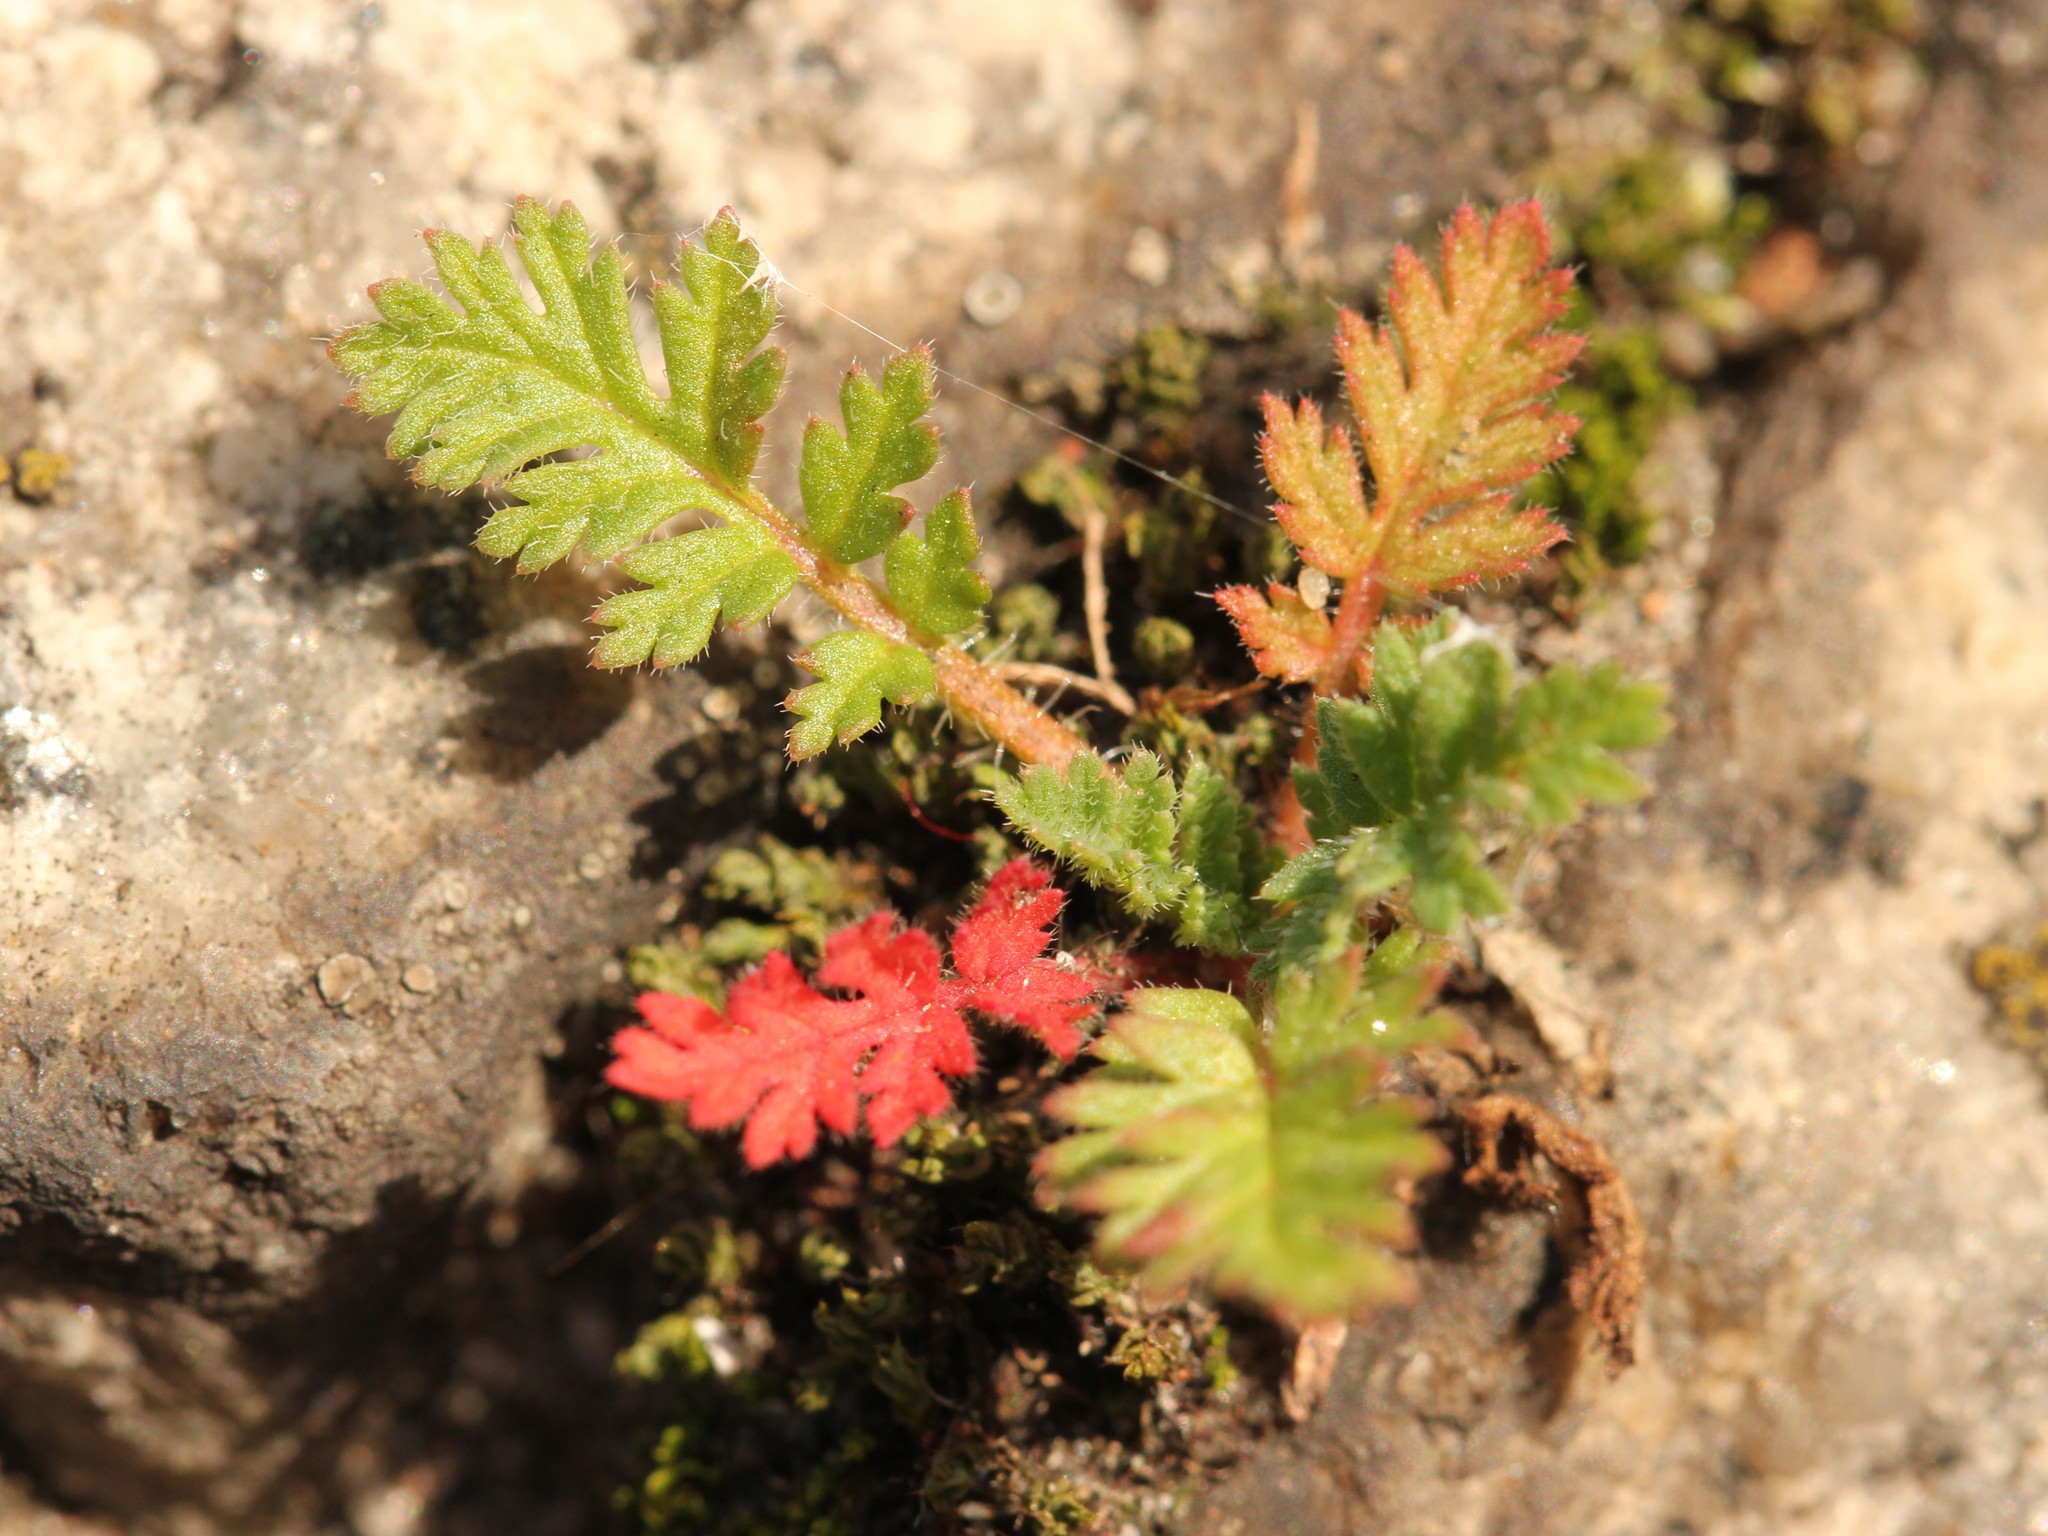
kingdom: Plantae
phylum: Tracheophyta
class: Magnoliopsida
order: Geraniales
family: Geraniaceae
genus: Erodium
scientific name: Erodium cicutarium
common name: Common stork's-bill
